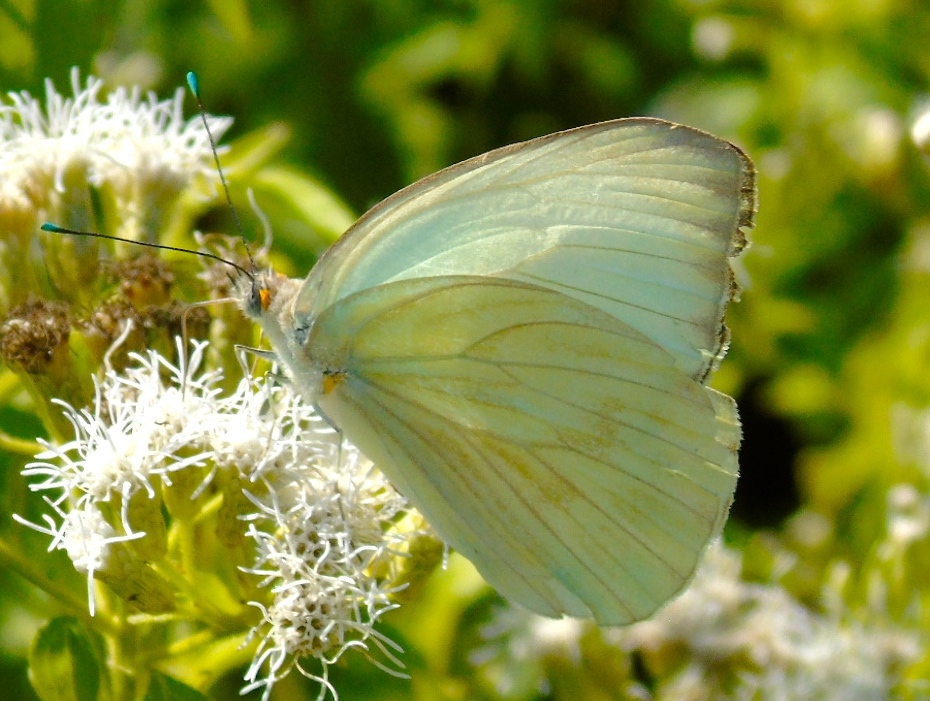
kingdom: Animalia
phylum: Arthropoda
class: Insecta
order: Lepidoptera
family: Pieridae
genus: Ascia
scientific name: Ascia monuste
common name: Great southern white
